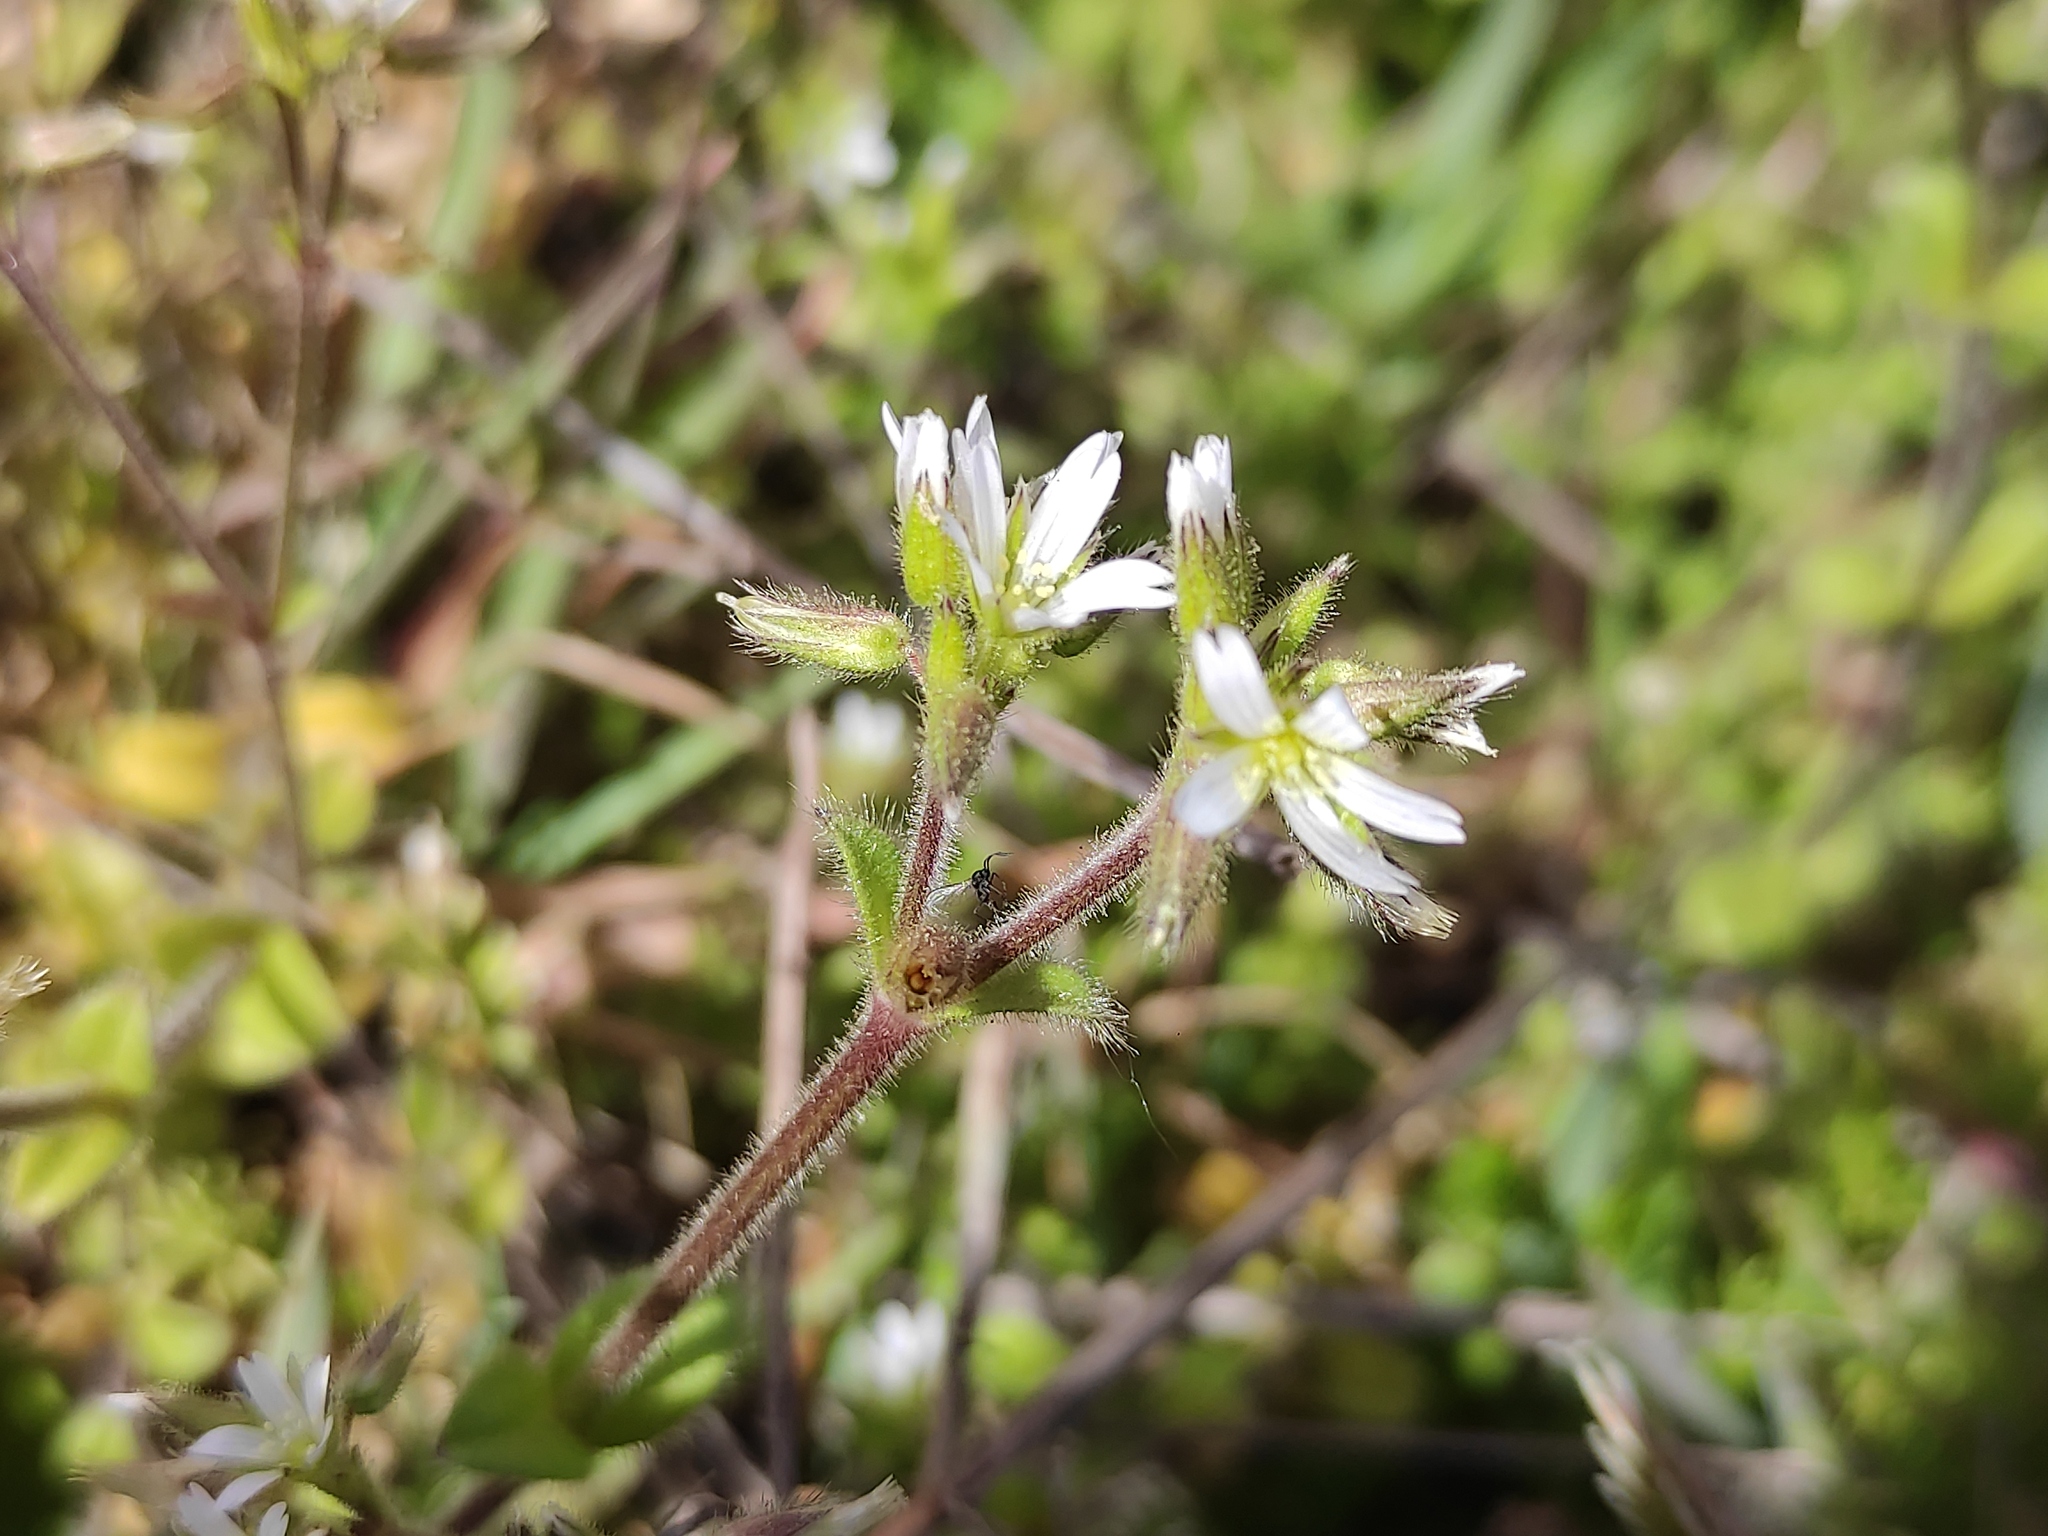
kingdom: Plantae
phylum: Tracheophyta
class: Magnoliopsida
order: Caryophyllales
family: Caryophyllaceae
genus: Cerastium
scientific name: Cerastium glomeratum
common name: Sticky chickweed
